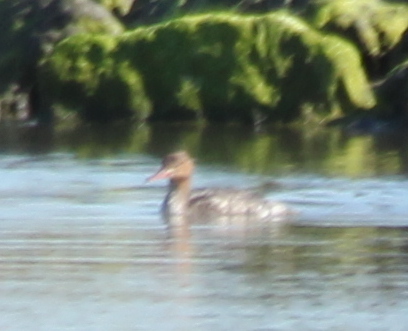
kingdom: Animalia
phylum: Chordata
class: Aves
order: Anseriformes
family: Anatidae
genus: Mergus
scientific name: Mergus serrator
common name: Red-breasted merganser
